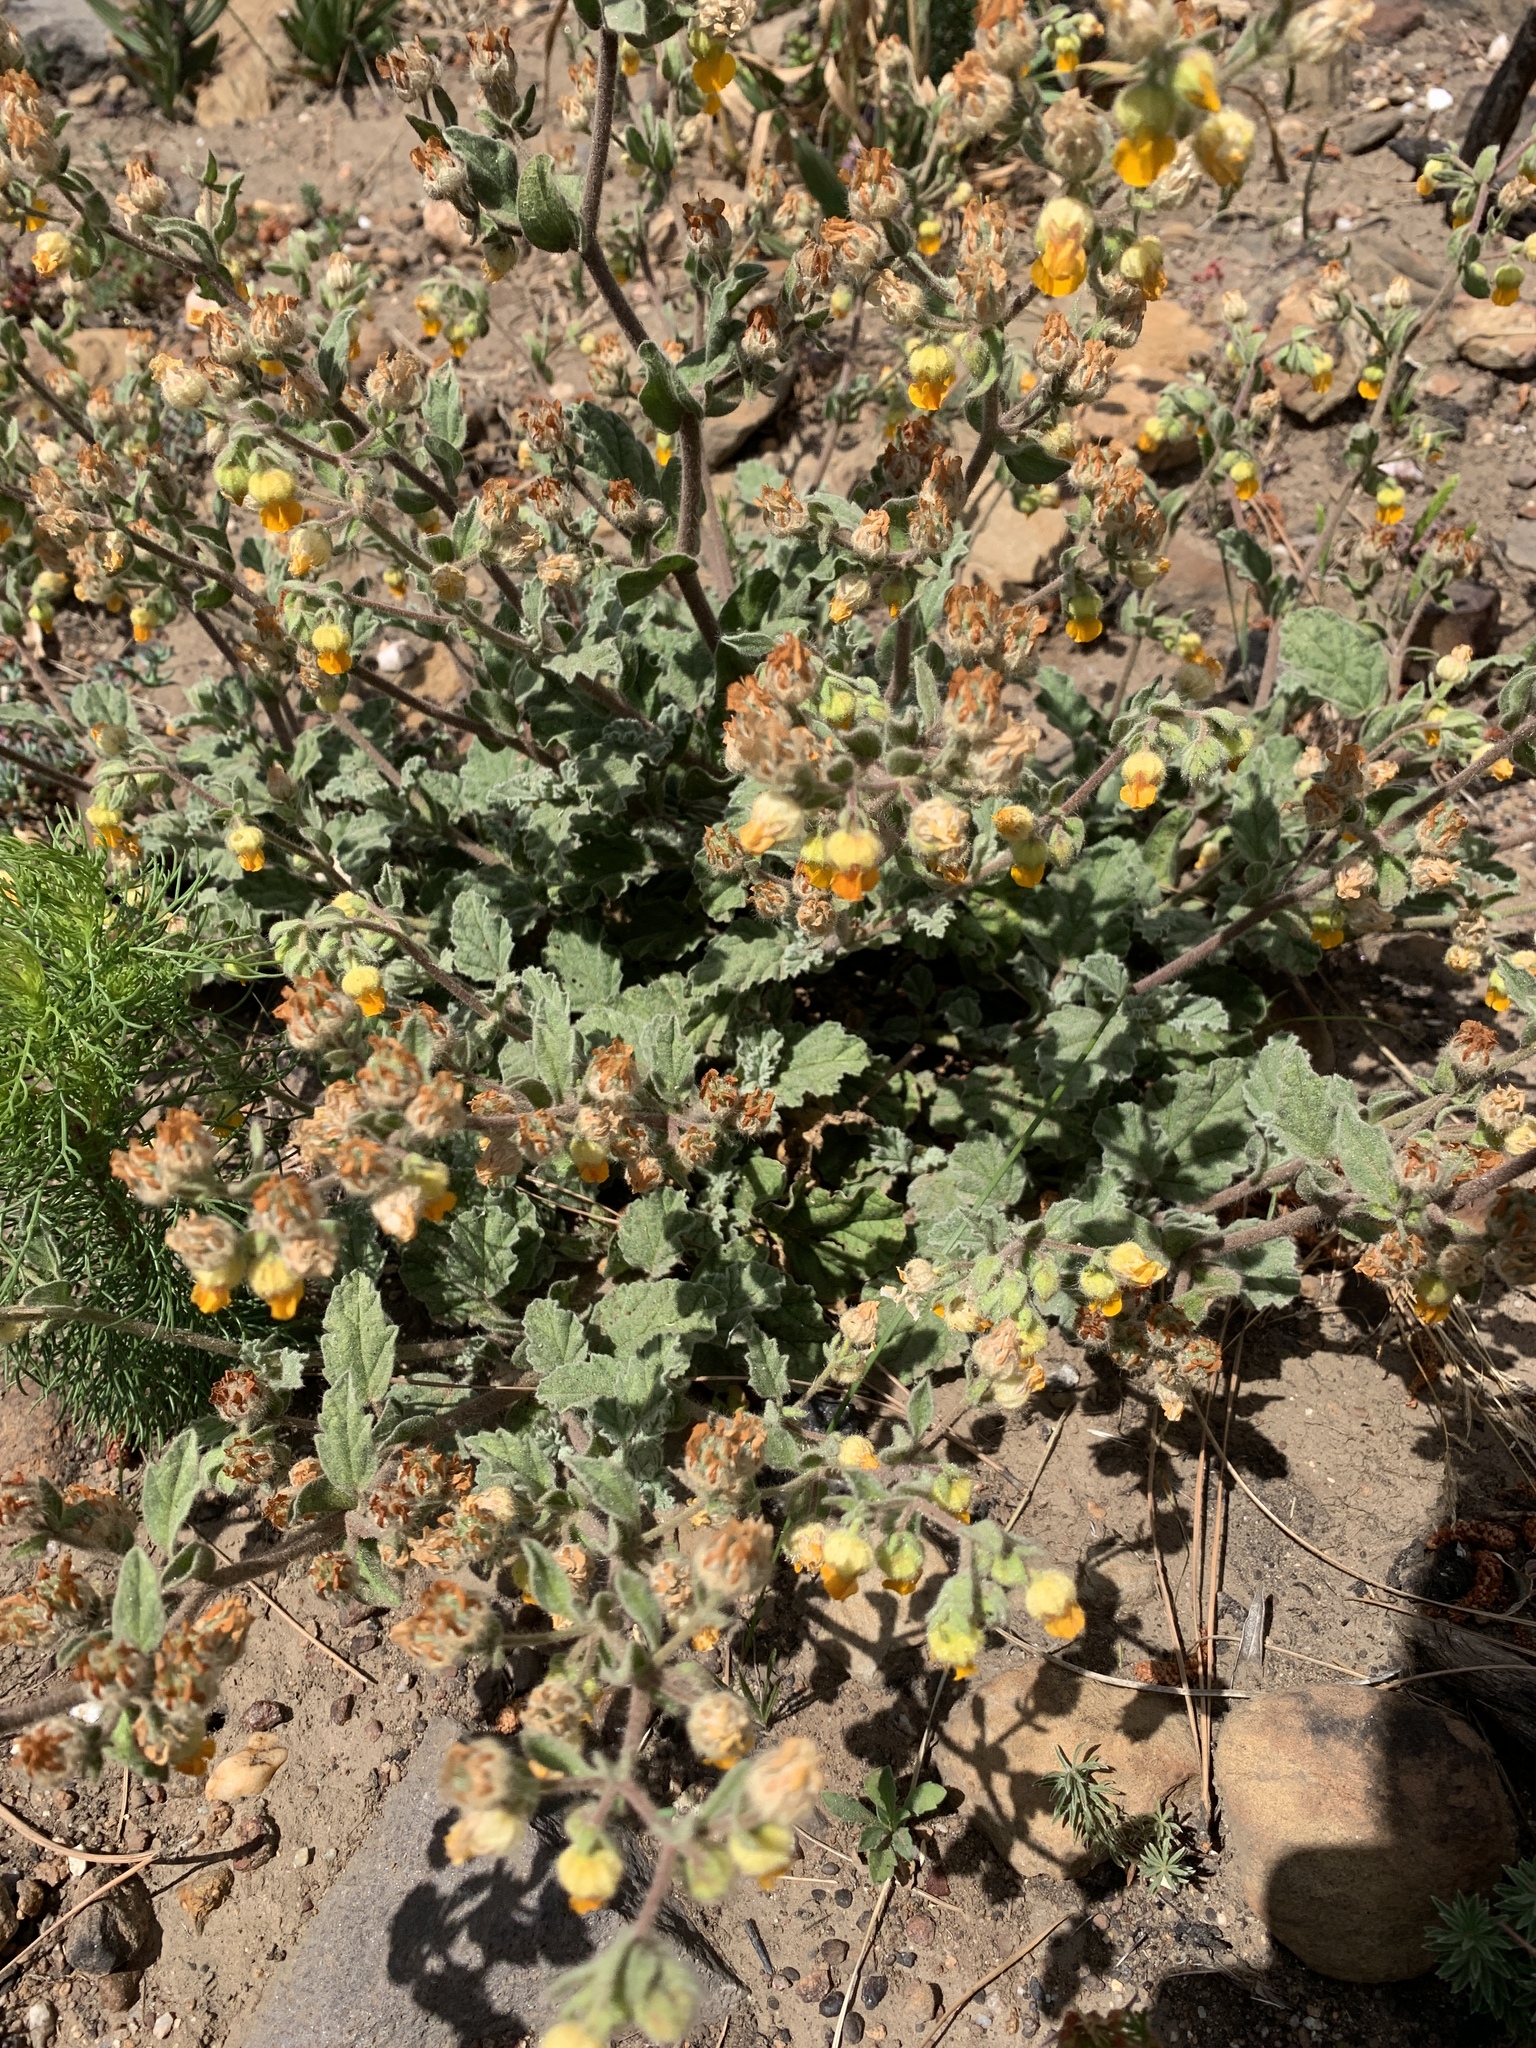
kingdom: Plantae
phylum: Tracheophyta
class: Magnoliopsida
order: Malvales
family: Malvaceae
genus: Hermannia
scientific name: Hermannia althaeifolia
